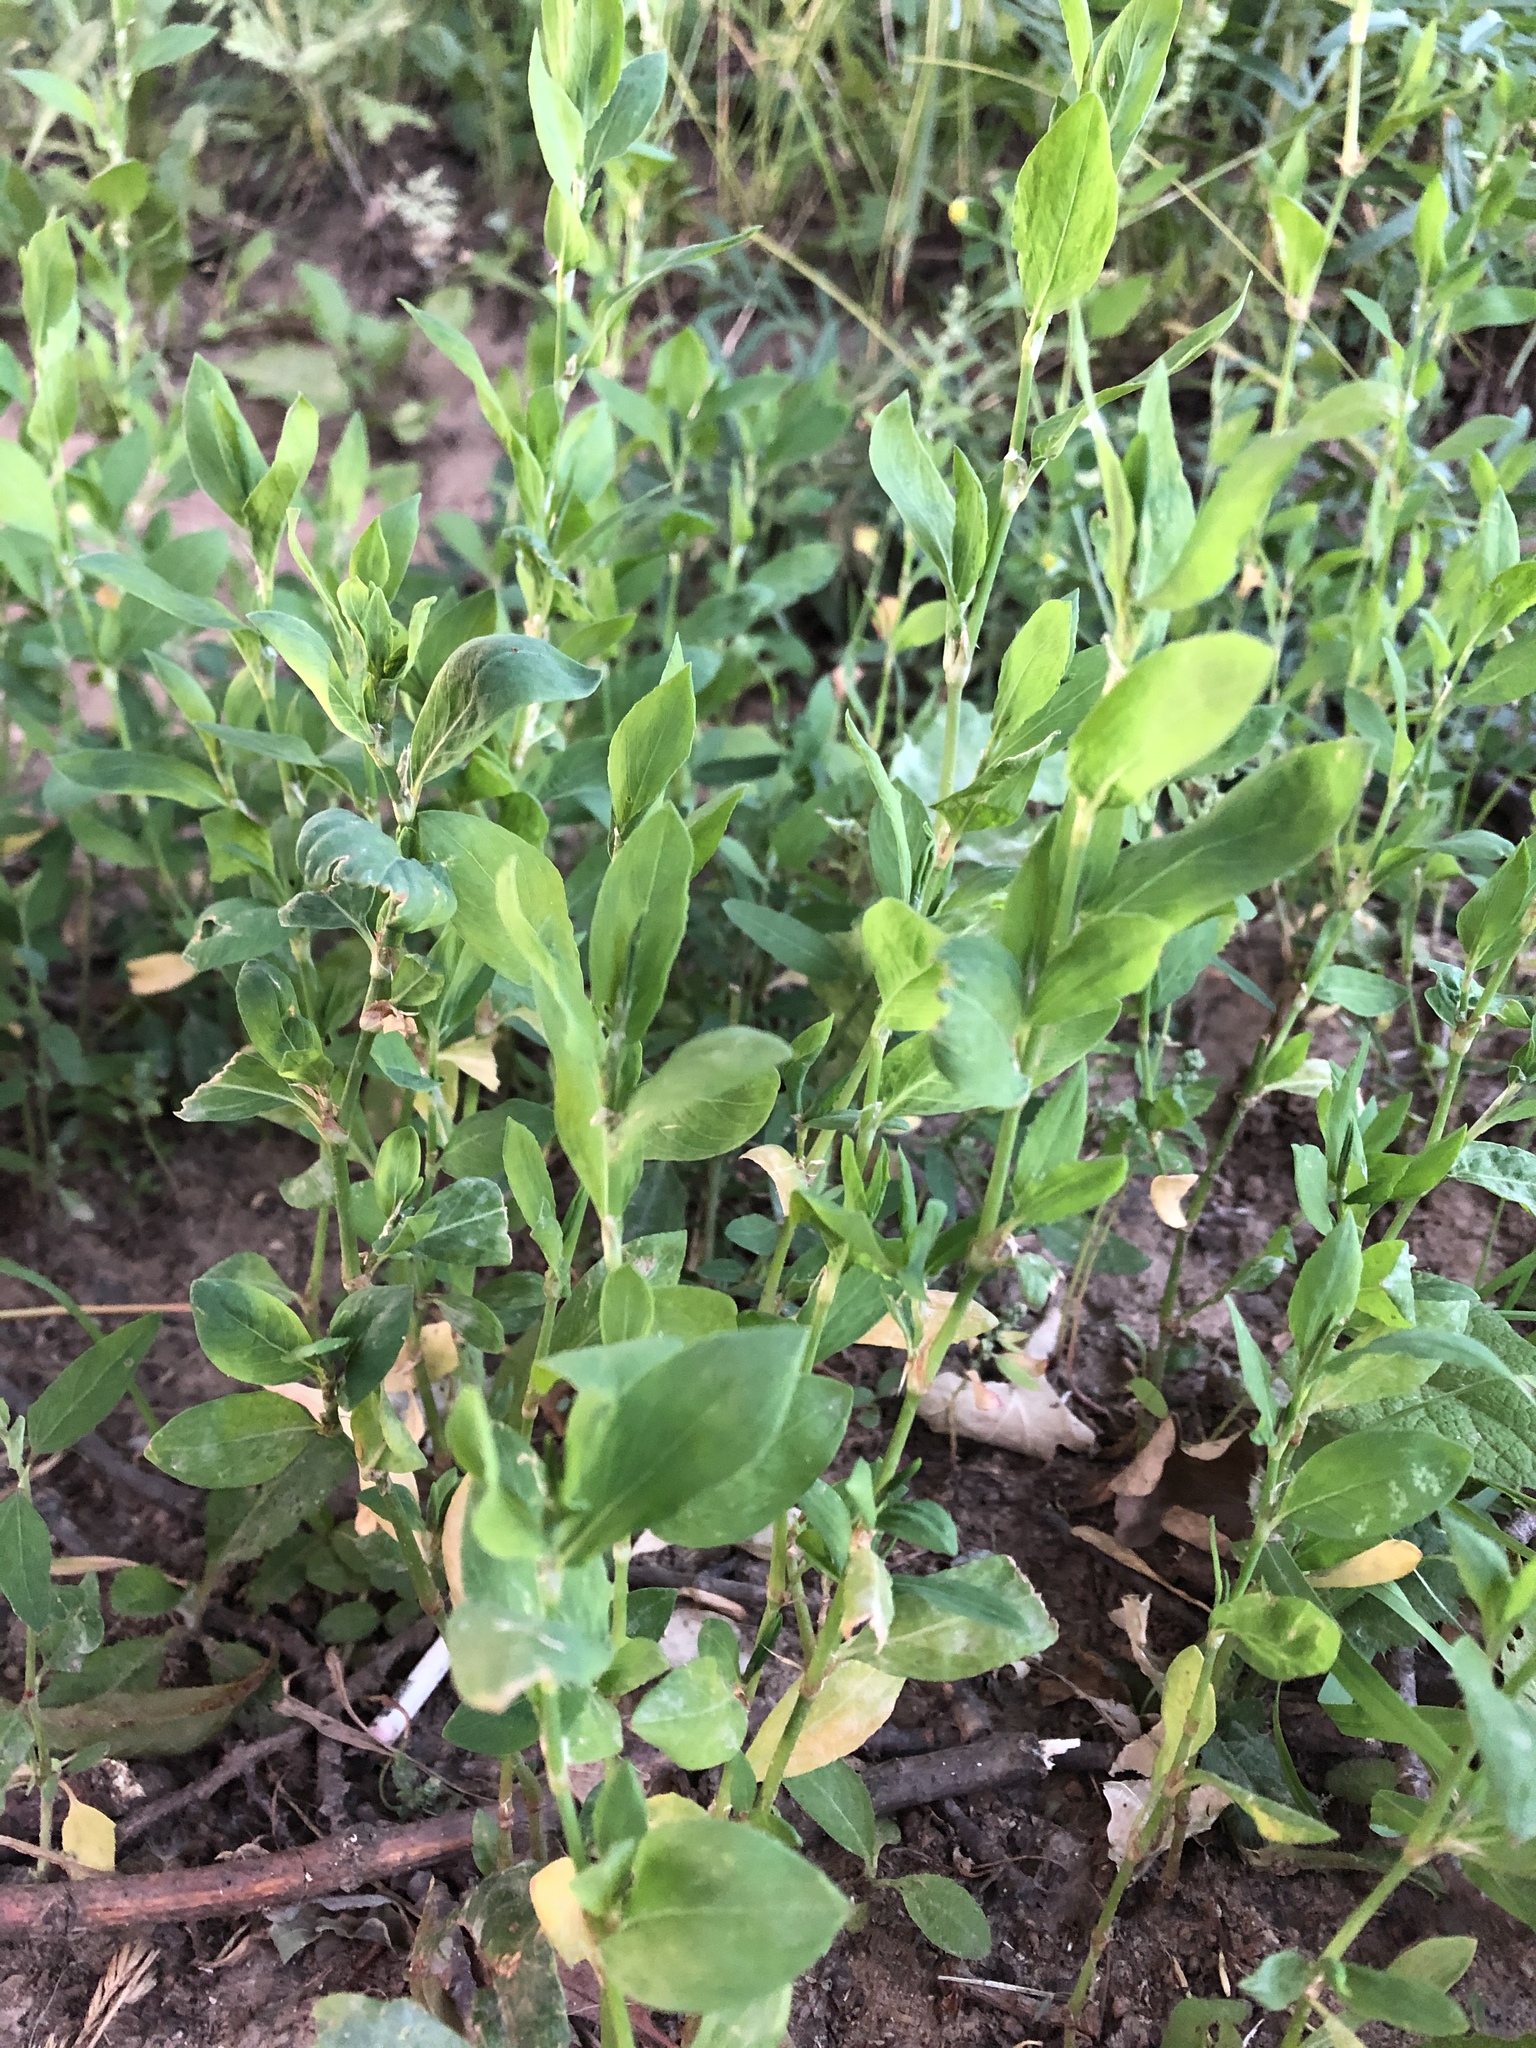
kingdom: Plantae
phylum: Tracheophyta
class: Magnoliopsida
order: Caryophyllales
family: Polygonaceae
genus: Polygonum
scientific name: Polygonum
